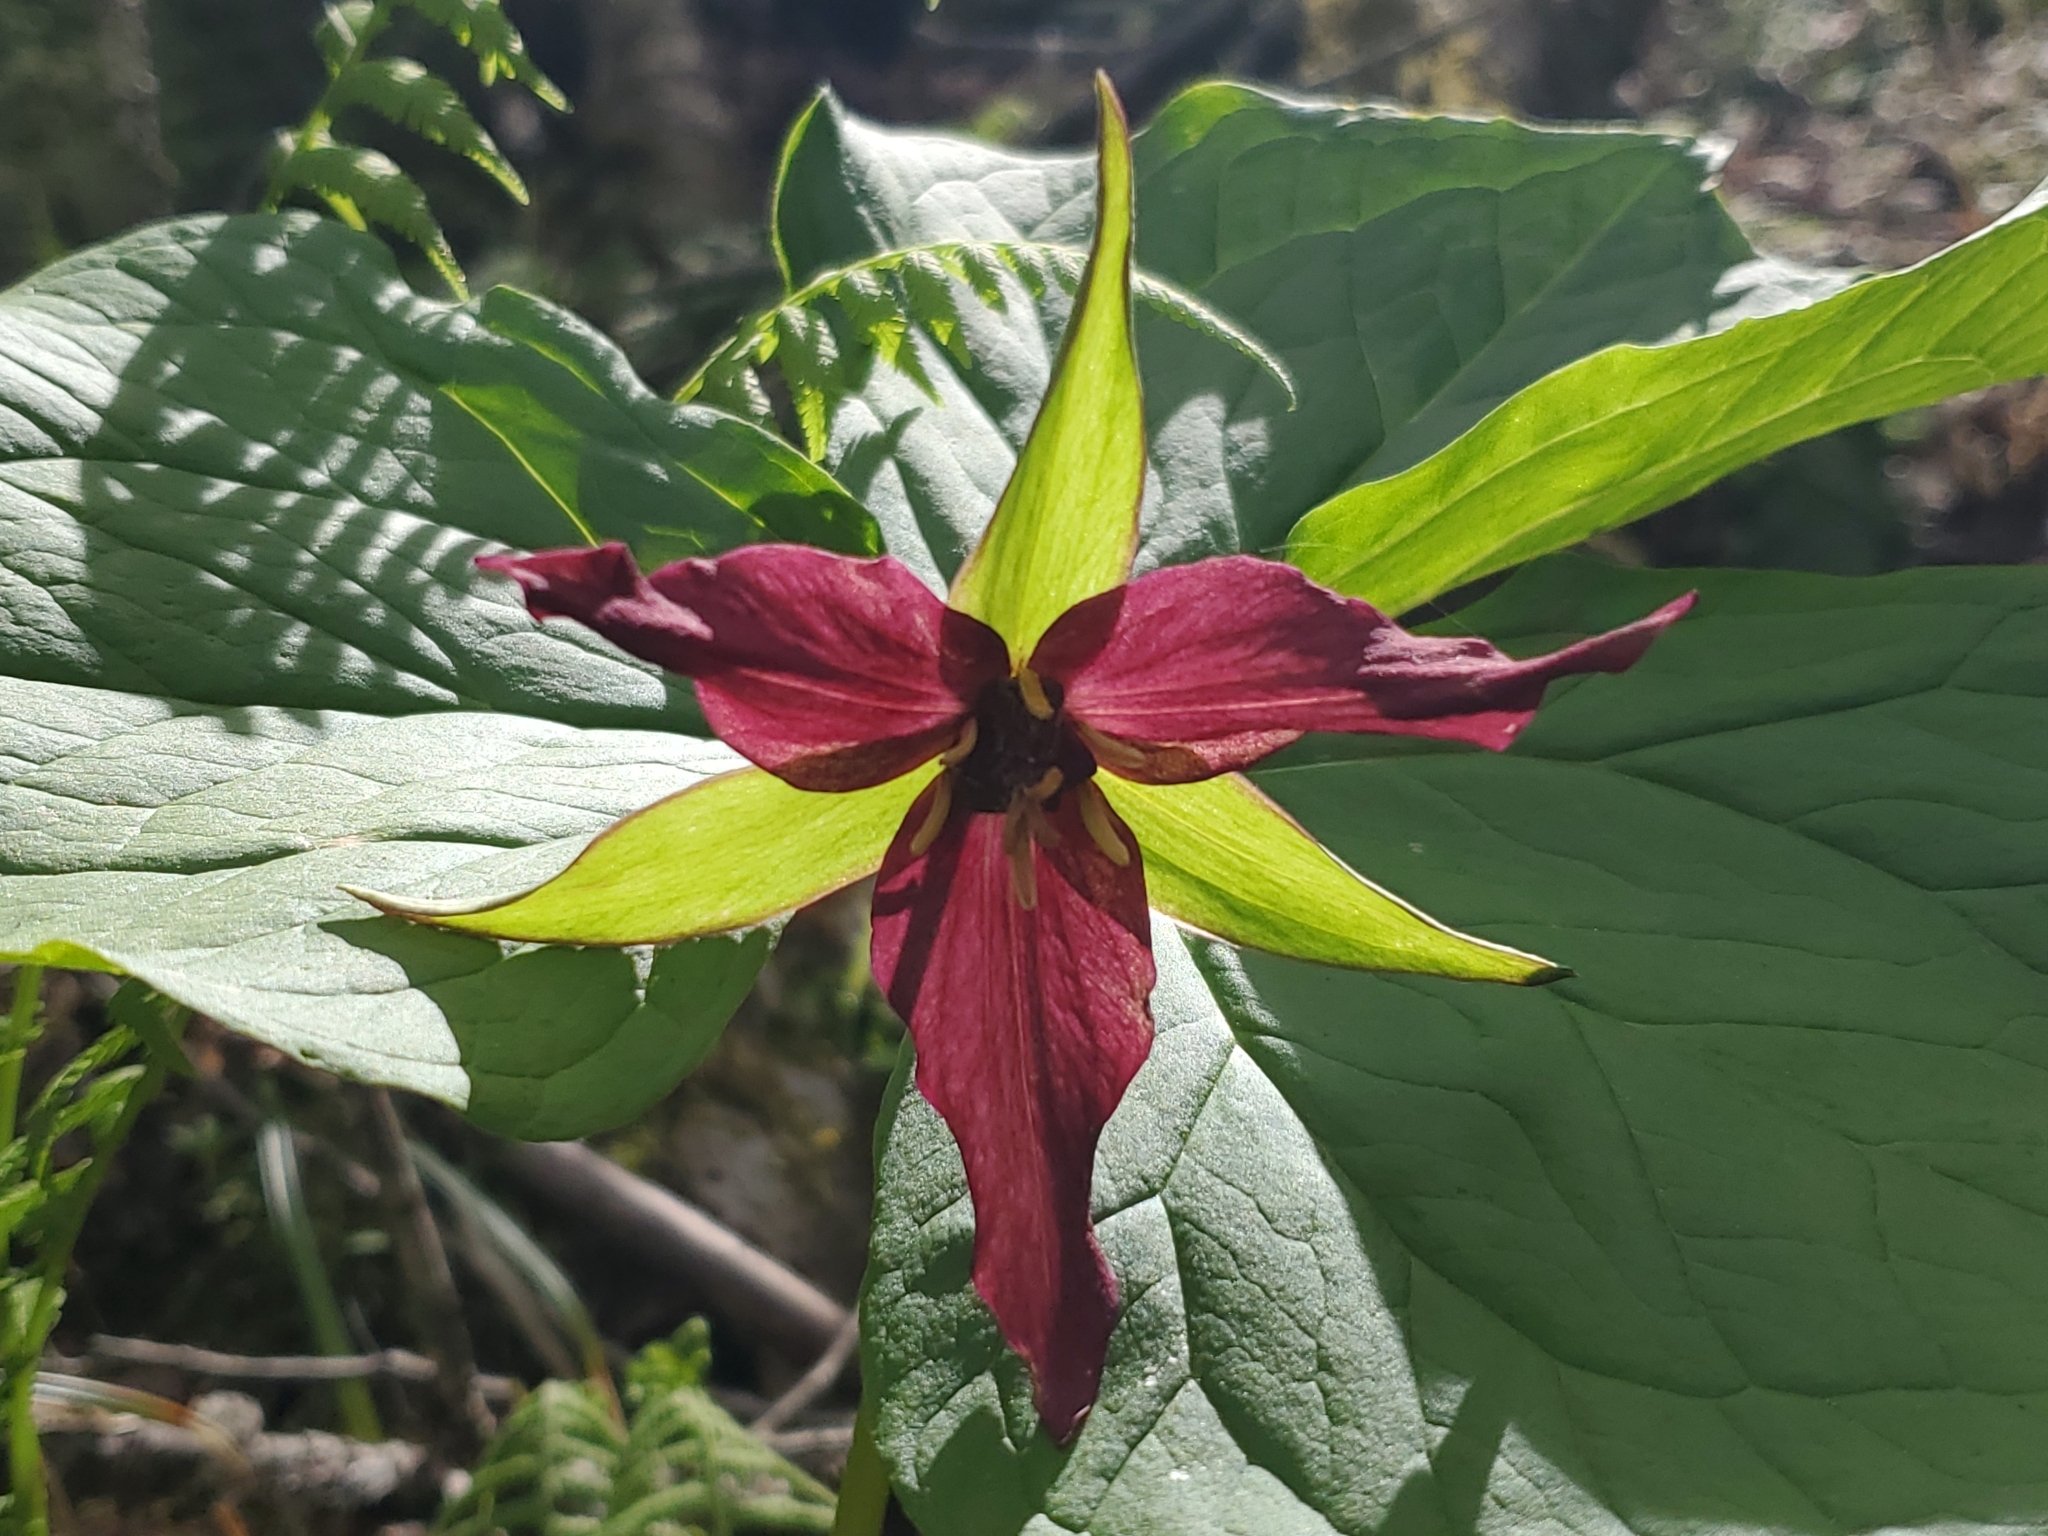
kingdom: Plantae
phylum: Tracheophyta
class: Liliopsida
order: Liliales
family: Melanthiaceae
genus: Trillium
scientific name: Trillium erectum
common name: Purple trillium
